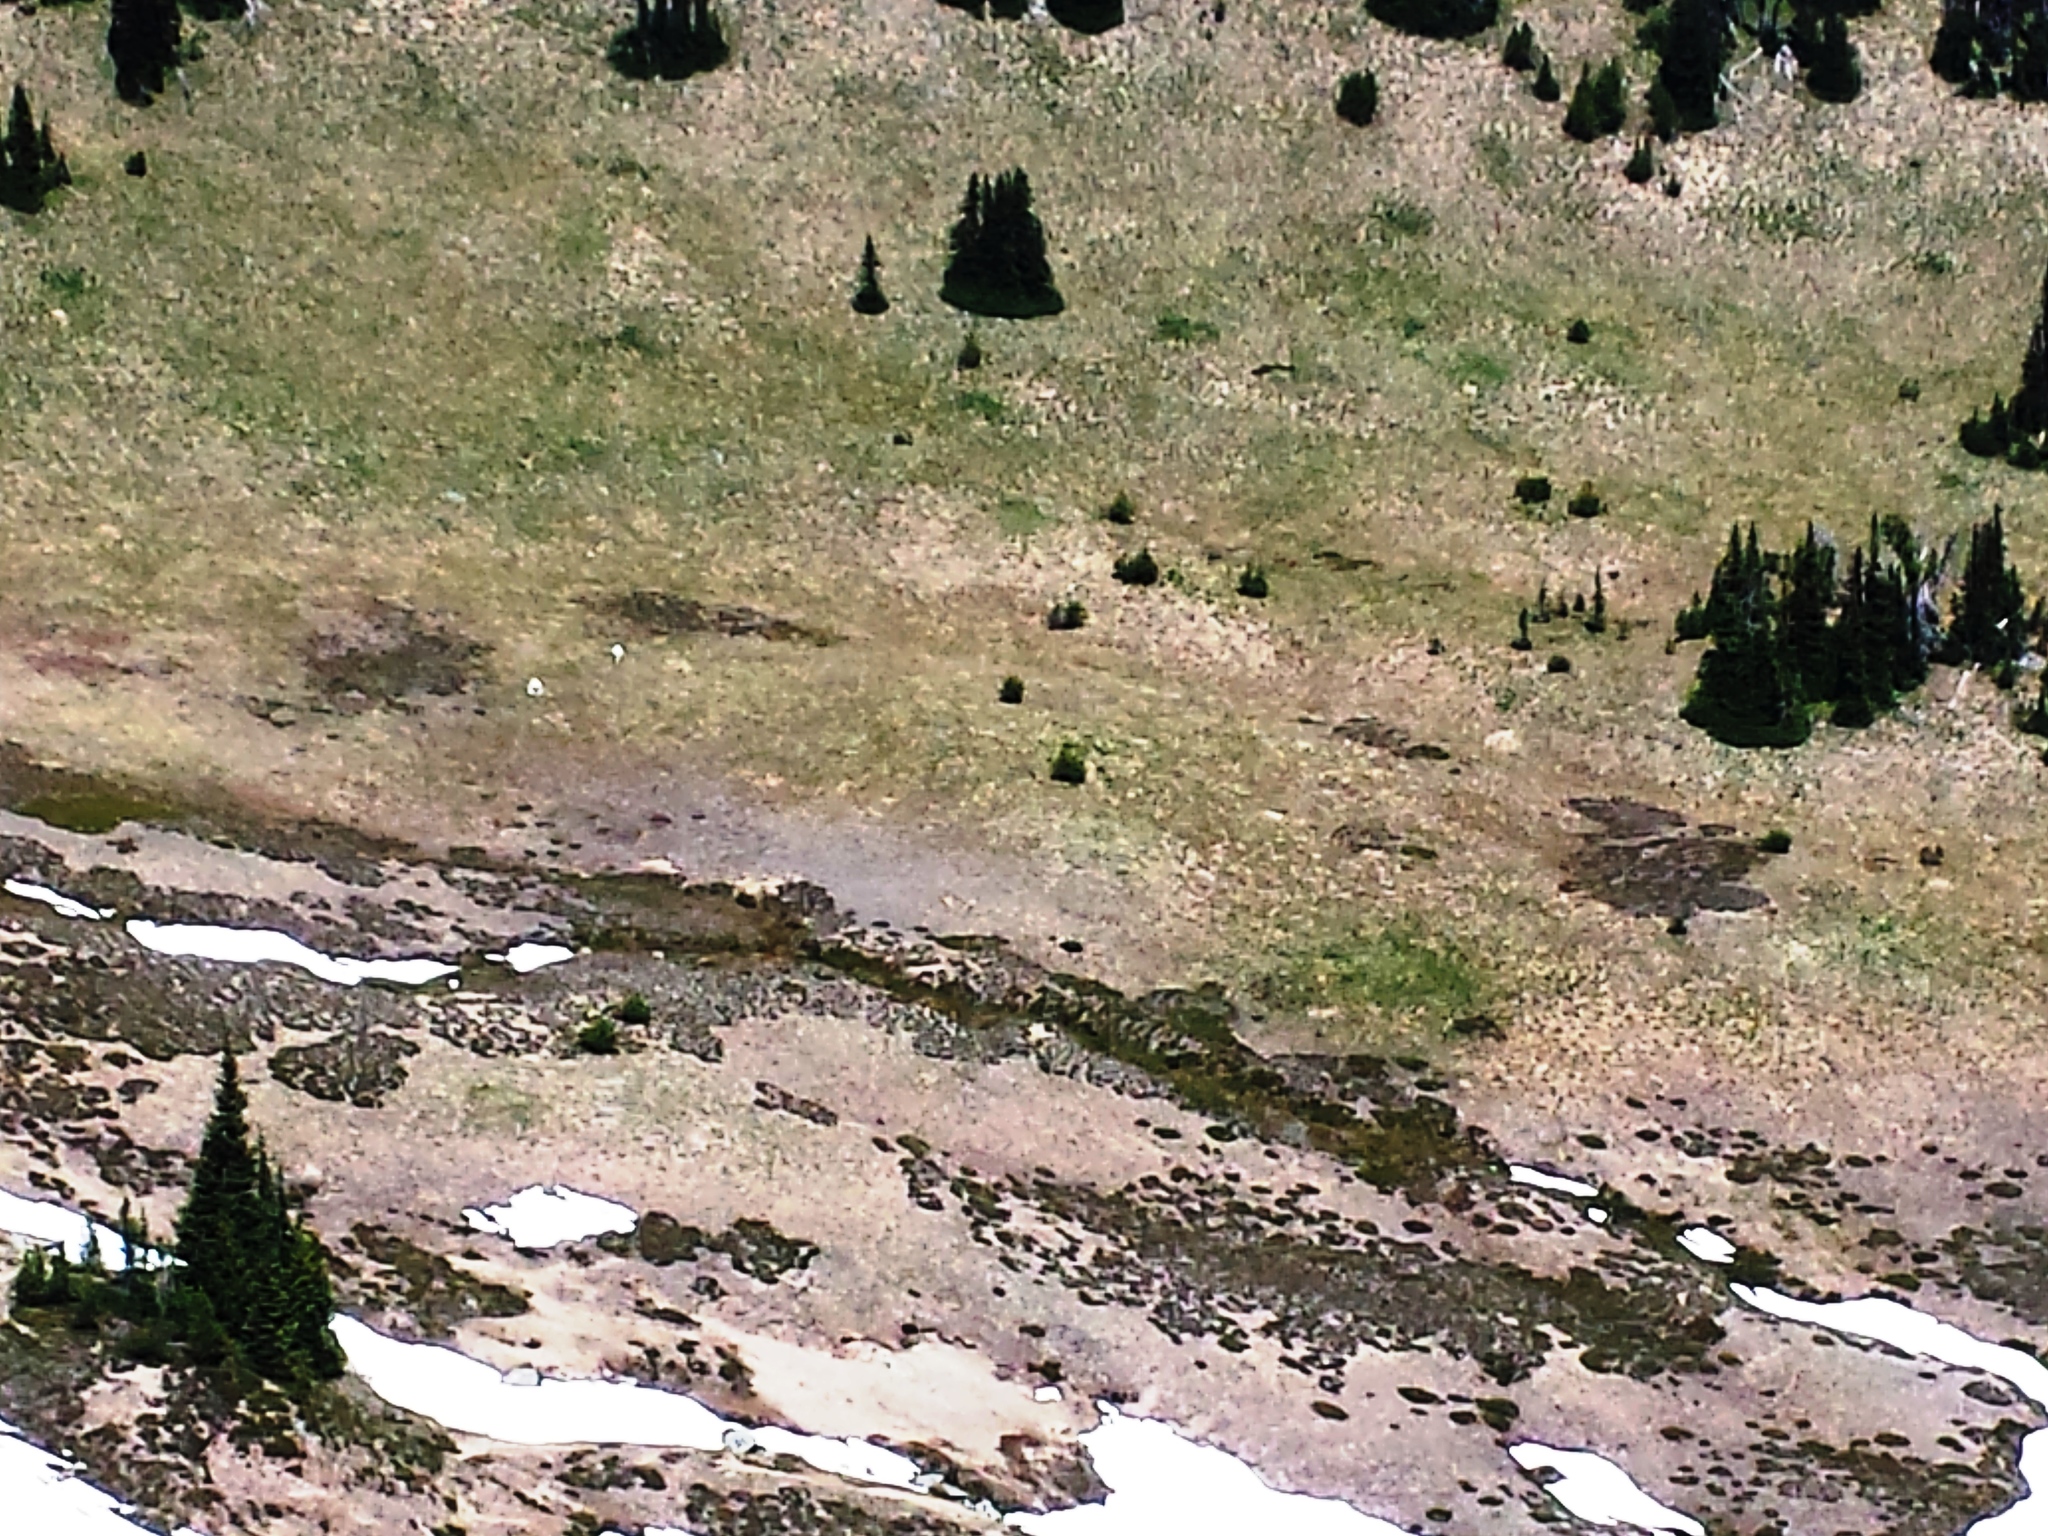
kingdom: Animalia
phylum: Chordata
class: Mammalia
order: Artiodactyla
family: Bovidae
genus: Oreamnos
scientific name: Oreamnos americanus
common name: Mountain goat
